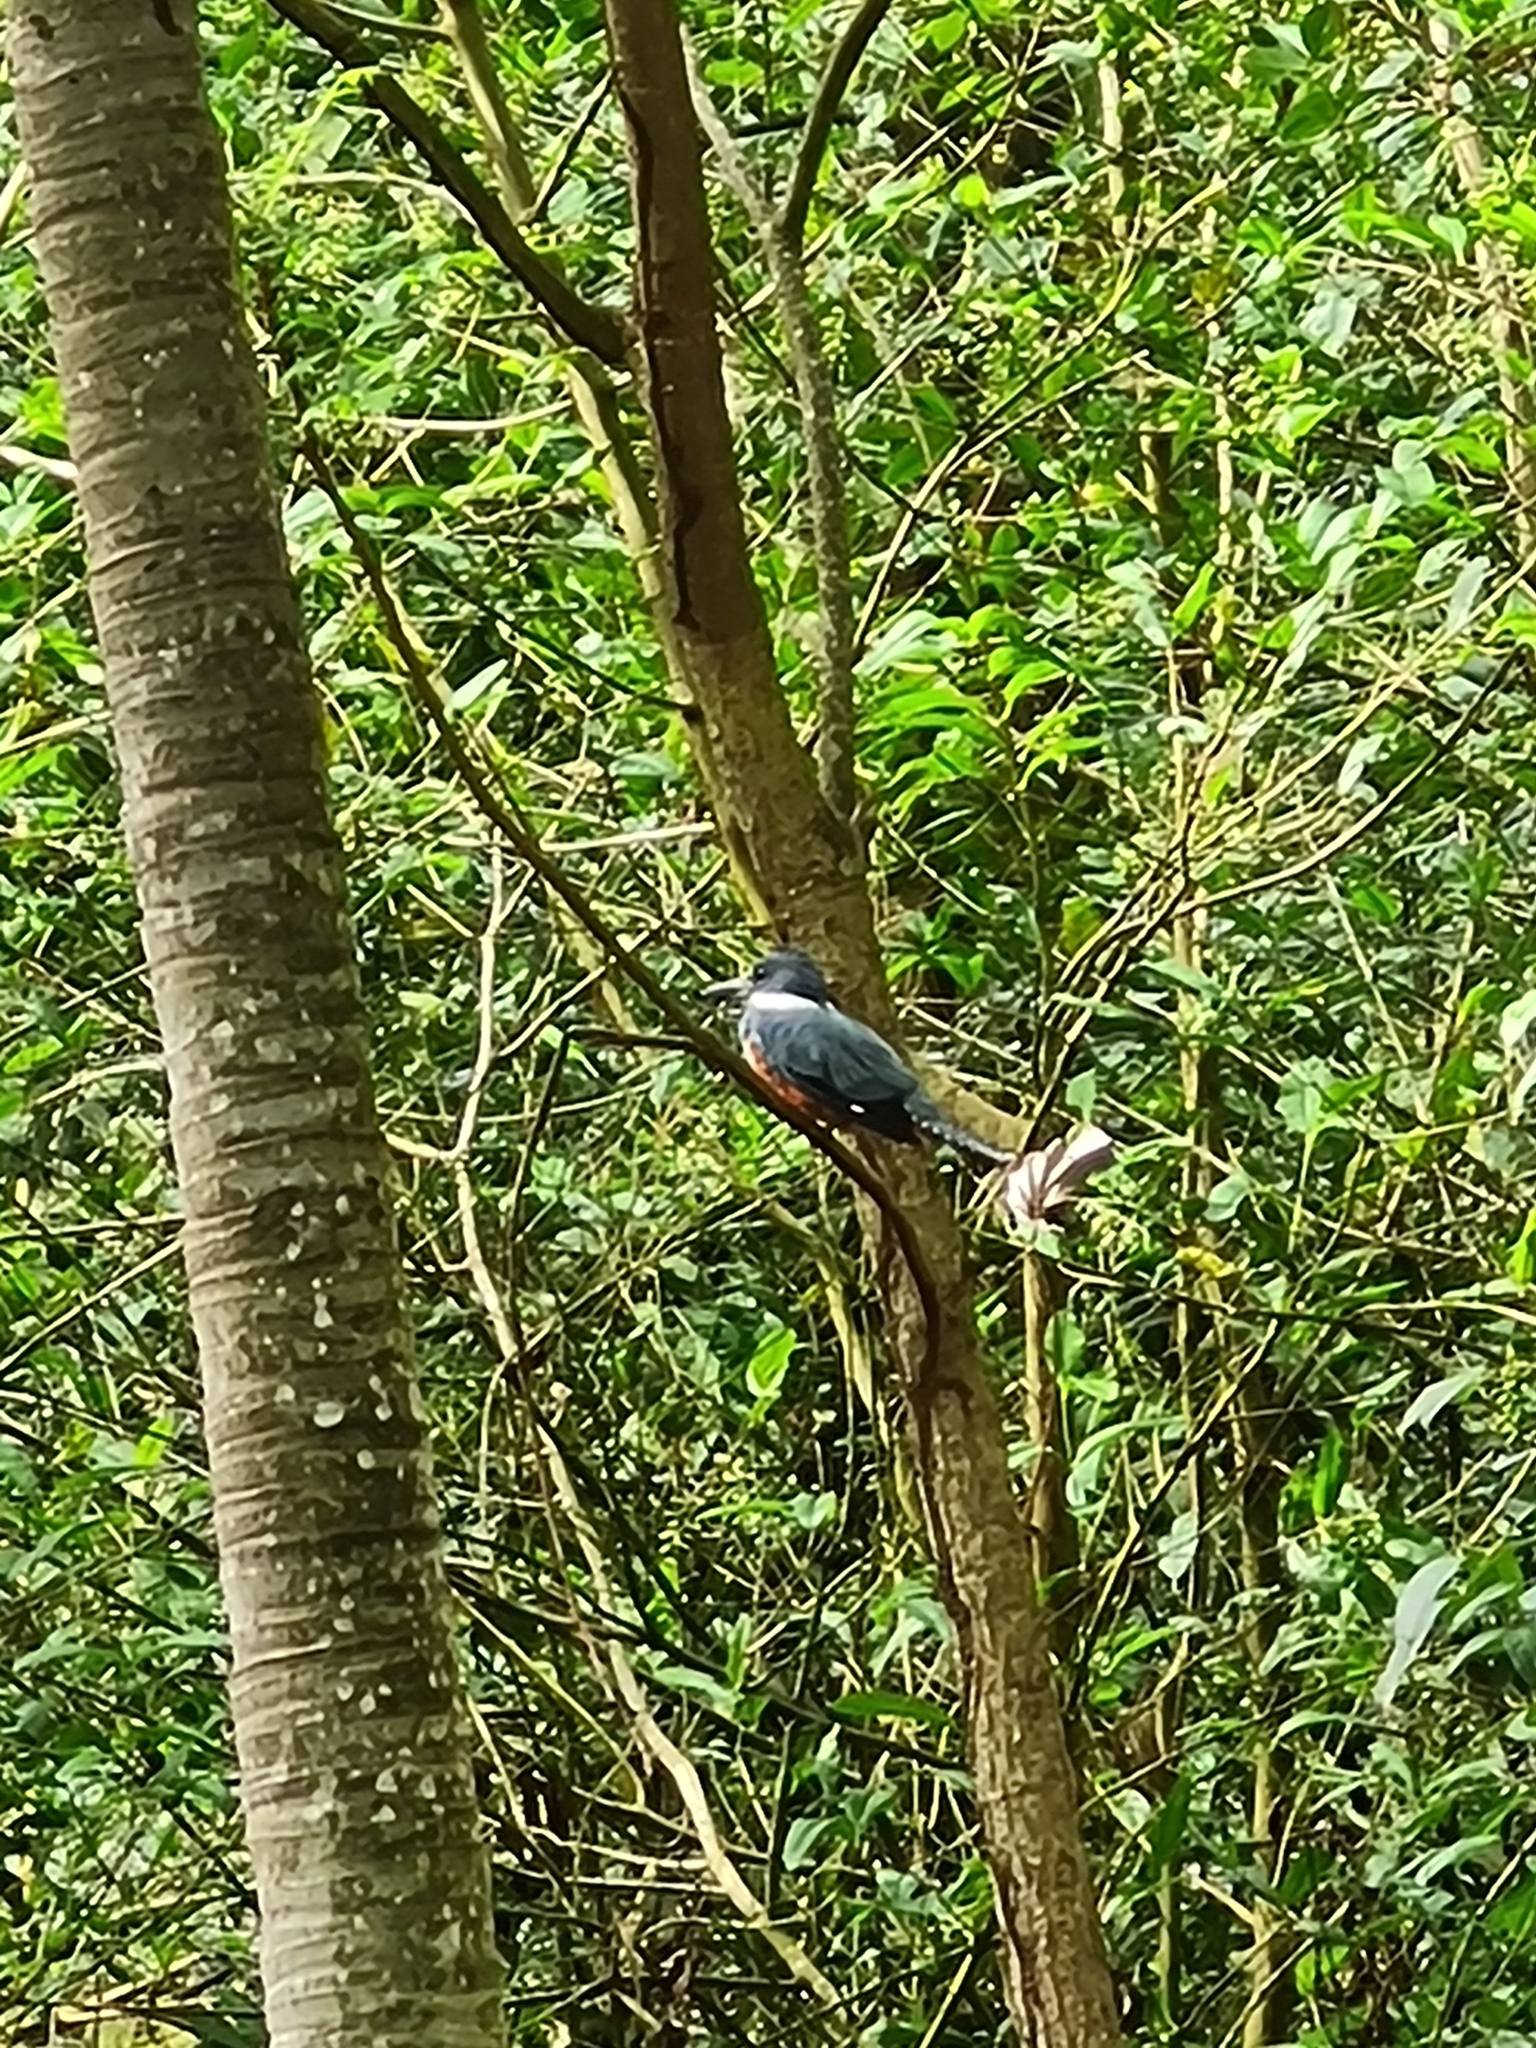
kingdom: Animalia
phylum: Chordata
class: Aves
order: Coraciiformes
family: Alcedinidae
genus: Megaceryle
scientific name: Megaceryle torquata
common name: Ringed kingfisher
